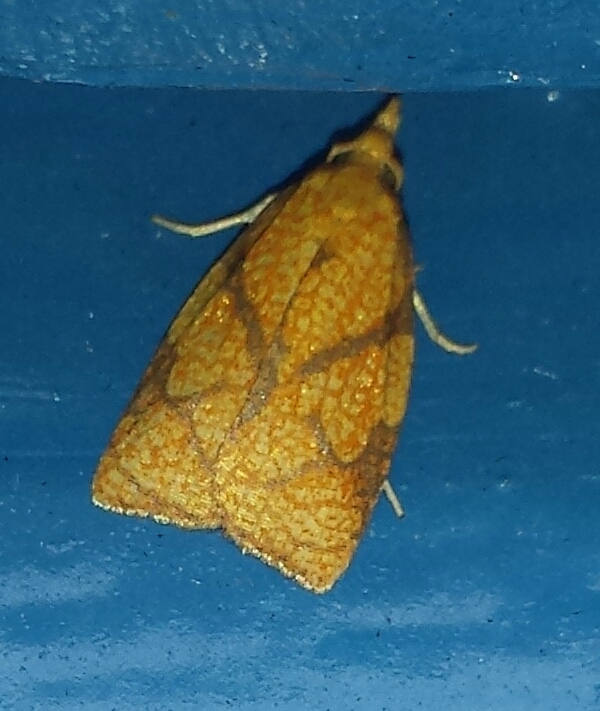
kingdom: Animalia
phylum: Arthropoda
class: Insecta
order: Lepidoptera
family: Tortricidae
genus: Cenopis
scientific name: Cenopis reticulatana
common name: Reticulated fruitworm moth
